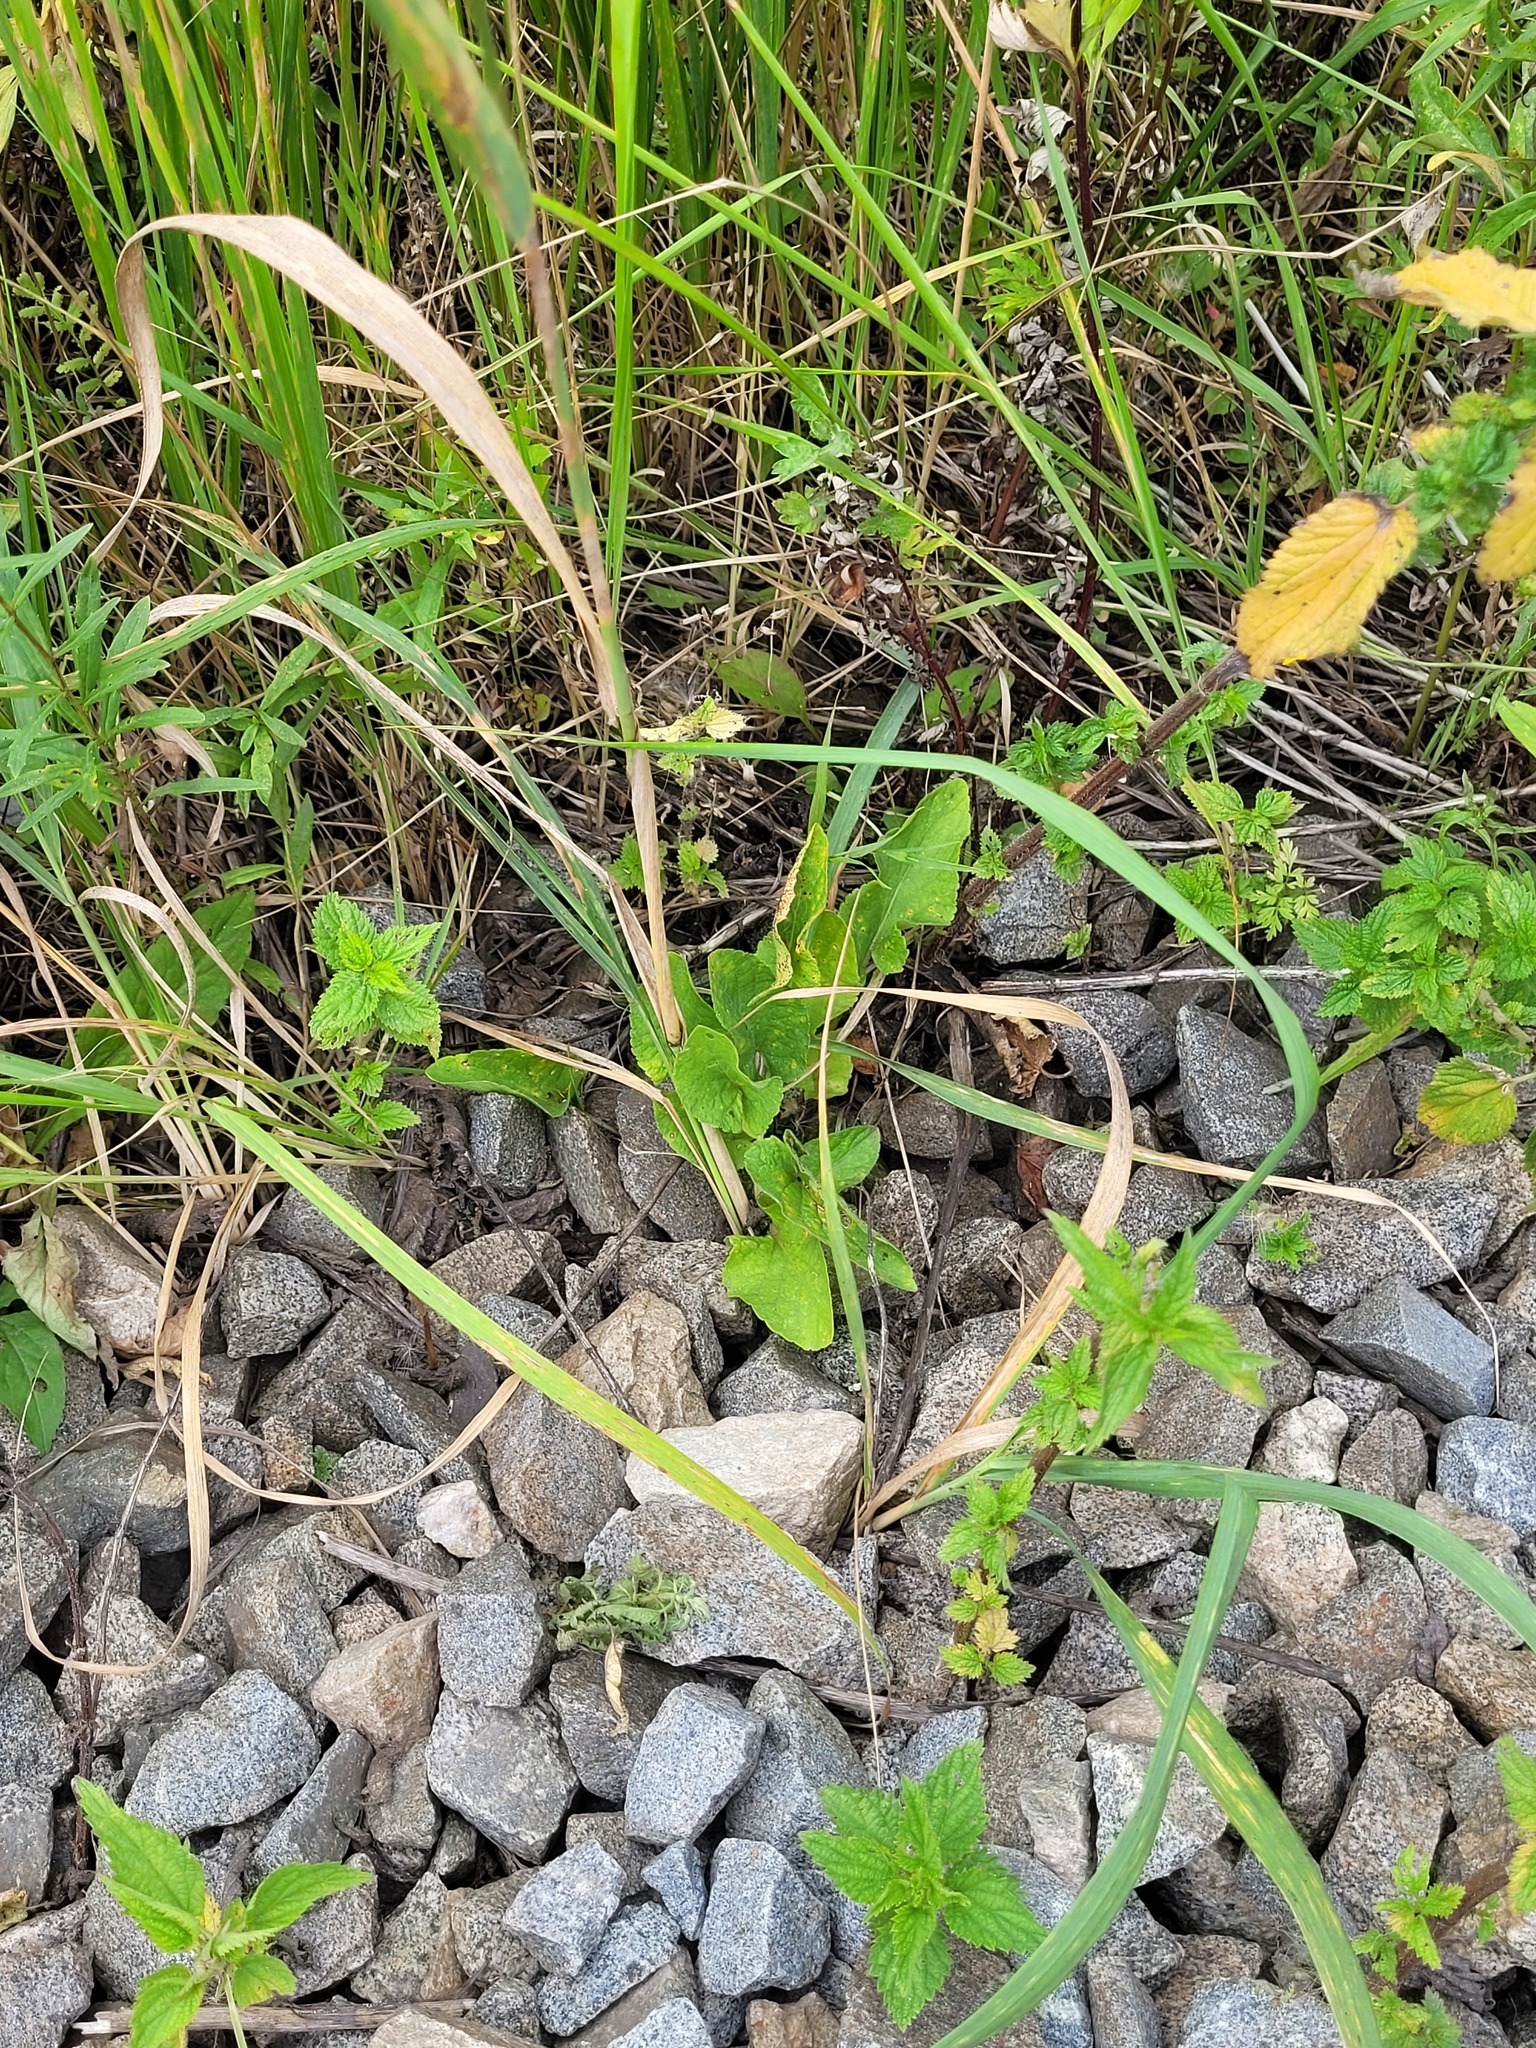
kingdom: Plantae
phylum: Tracheophyta
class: Magnoliopsida
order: Malpighiales
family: Violaceae
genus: Viola
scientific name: Viola hirta
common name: Hairy violet
